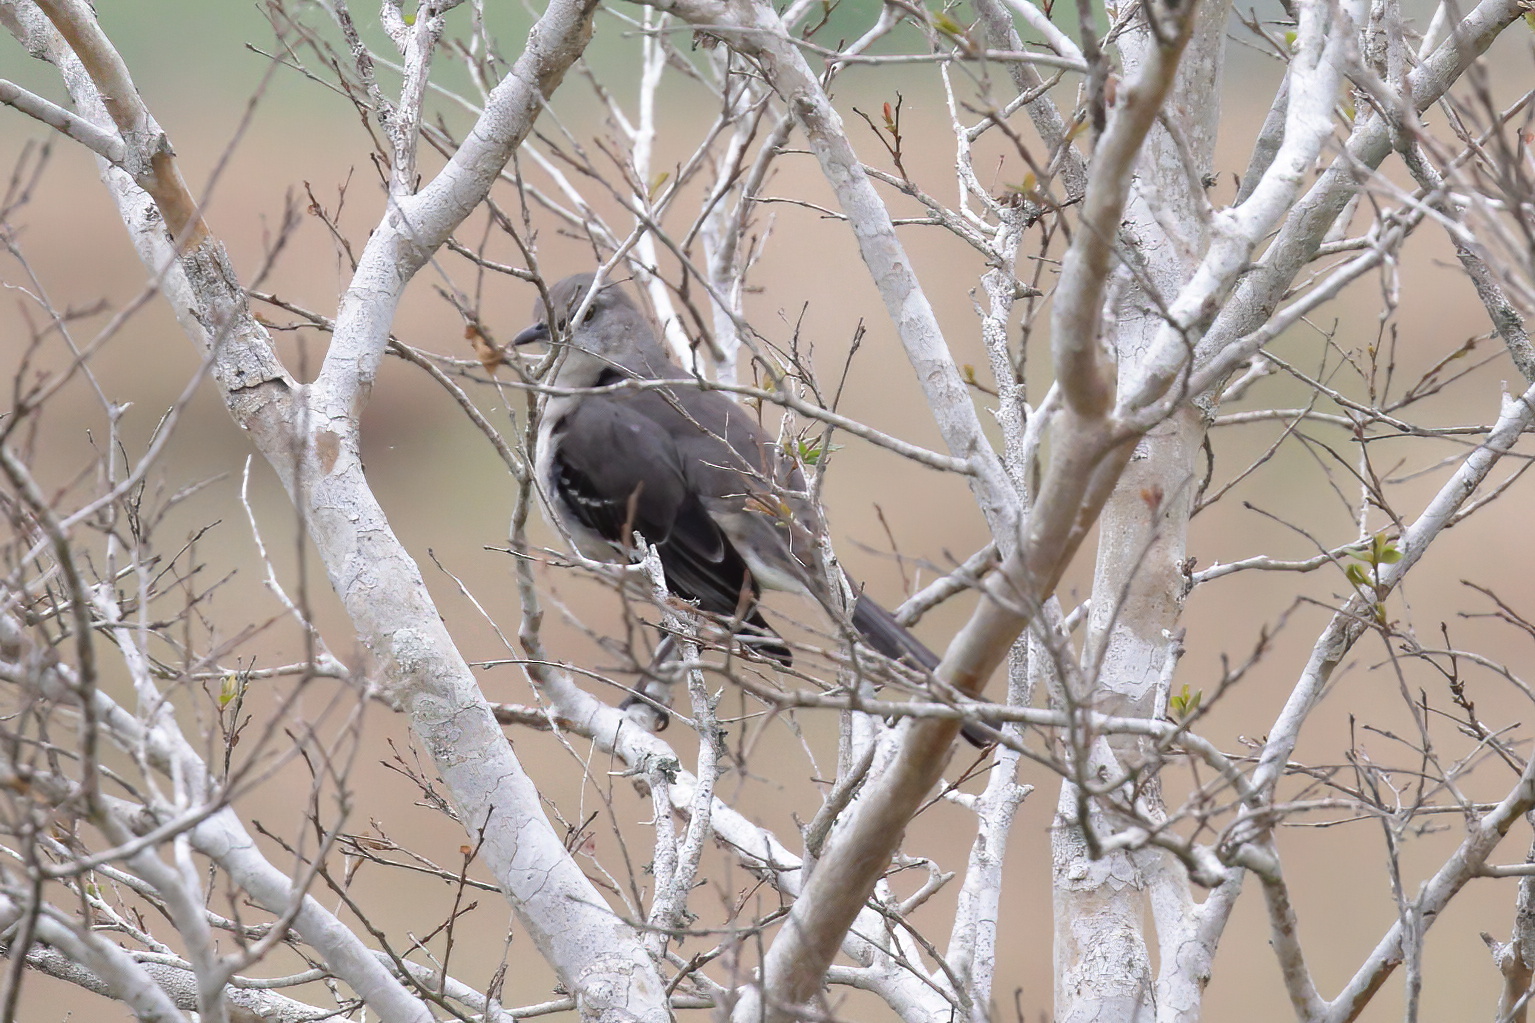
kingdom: Animalia
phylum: Chordata
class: Aves
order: Passeriformes
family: Mimidae
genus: Mimus
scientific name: Mimus polyglottos
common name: Northern mockingbird
